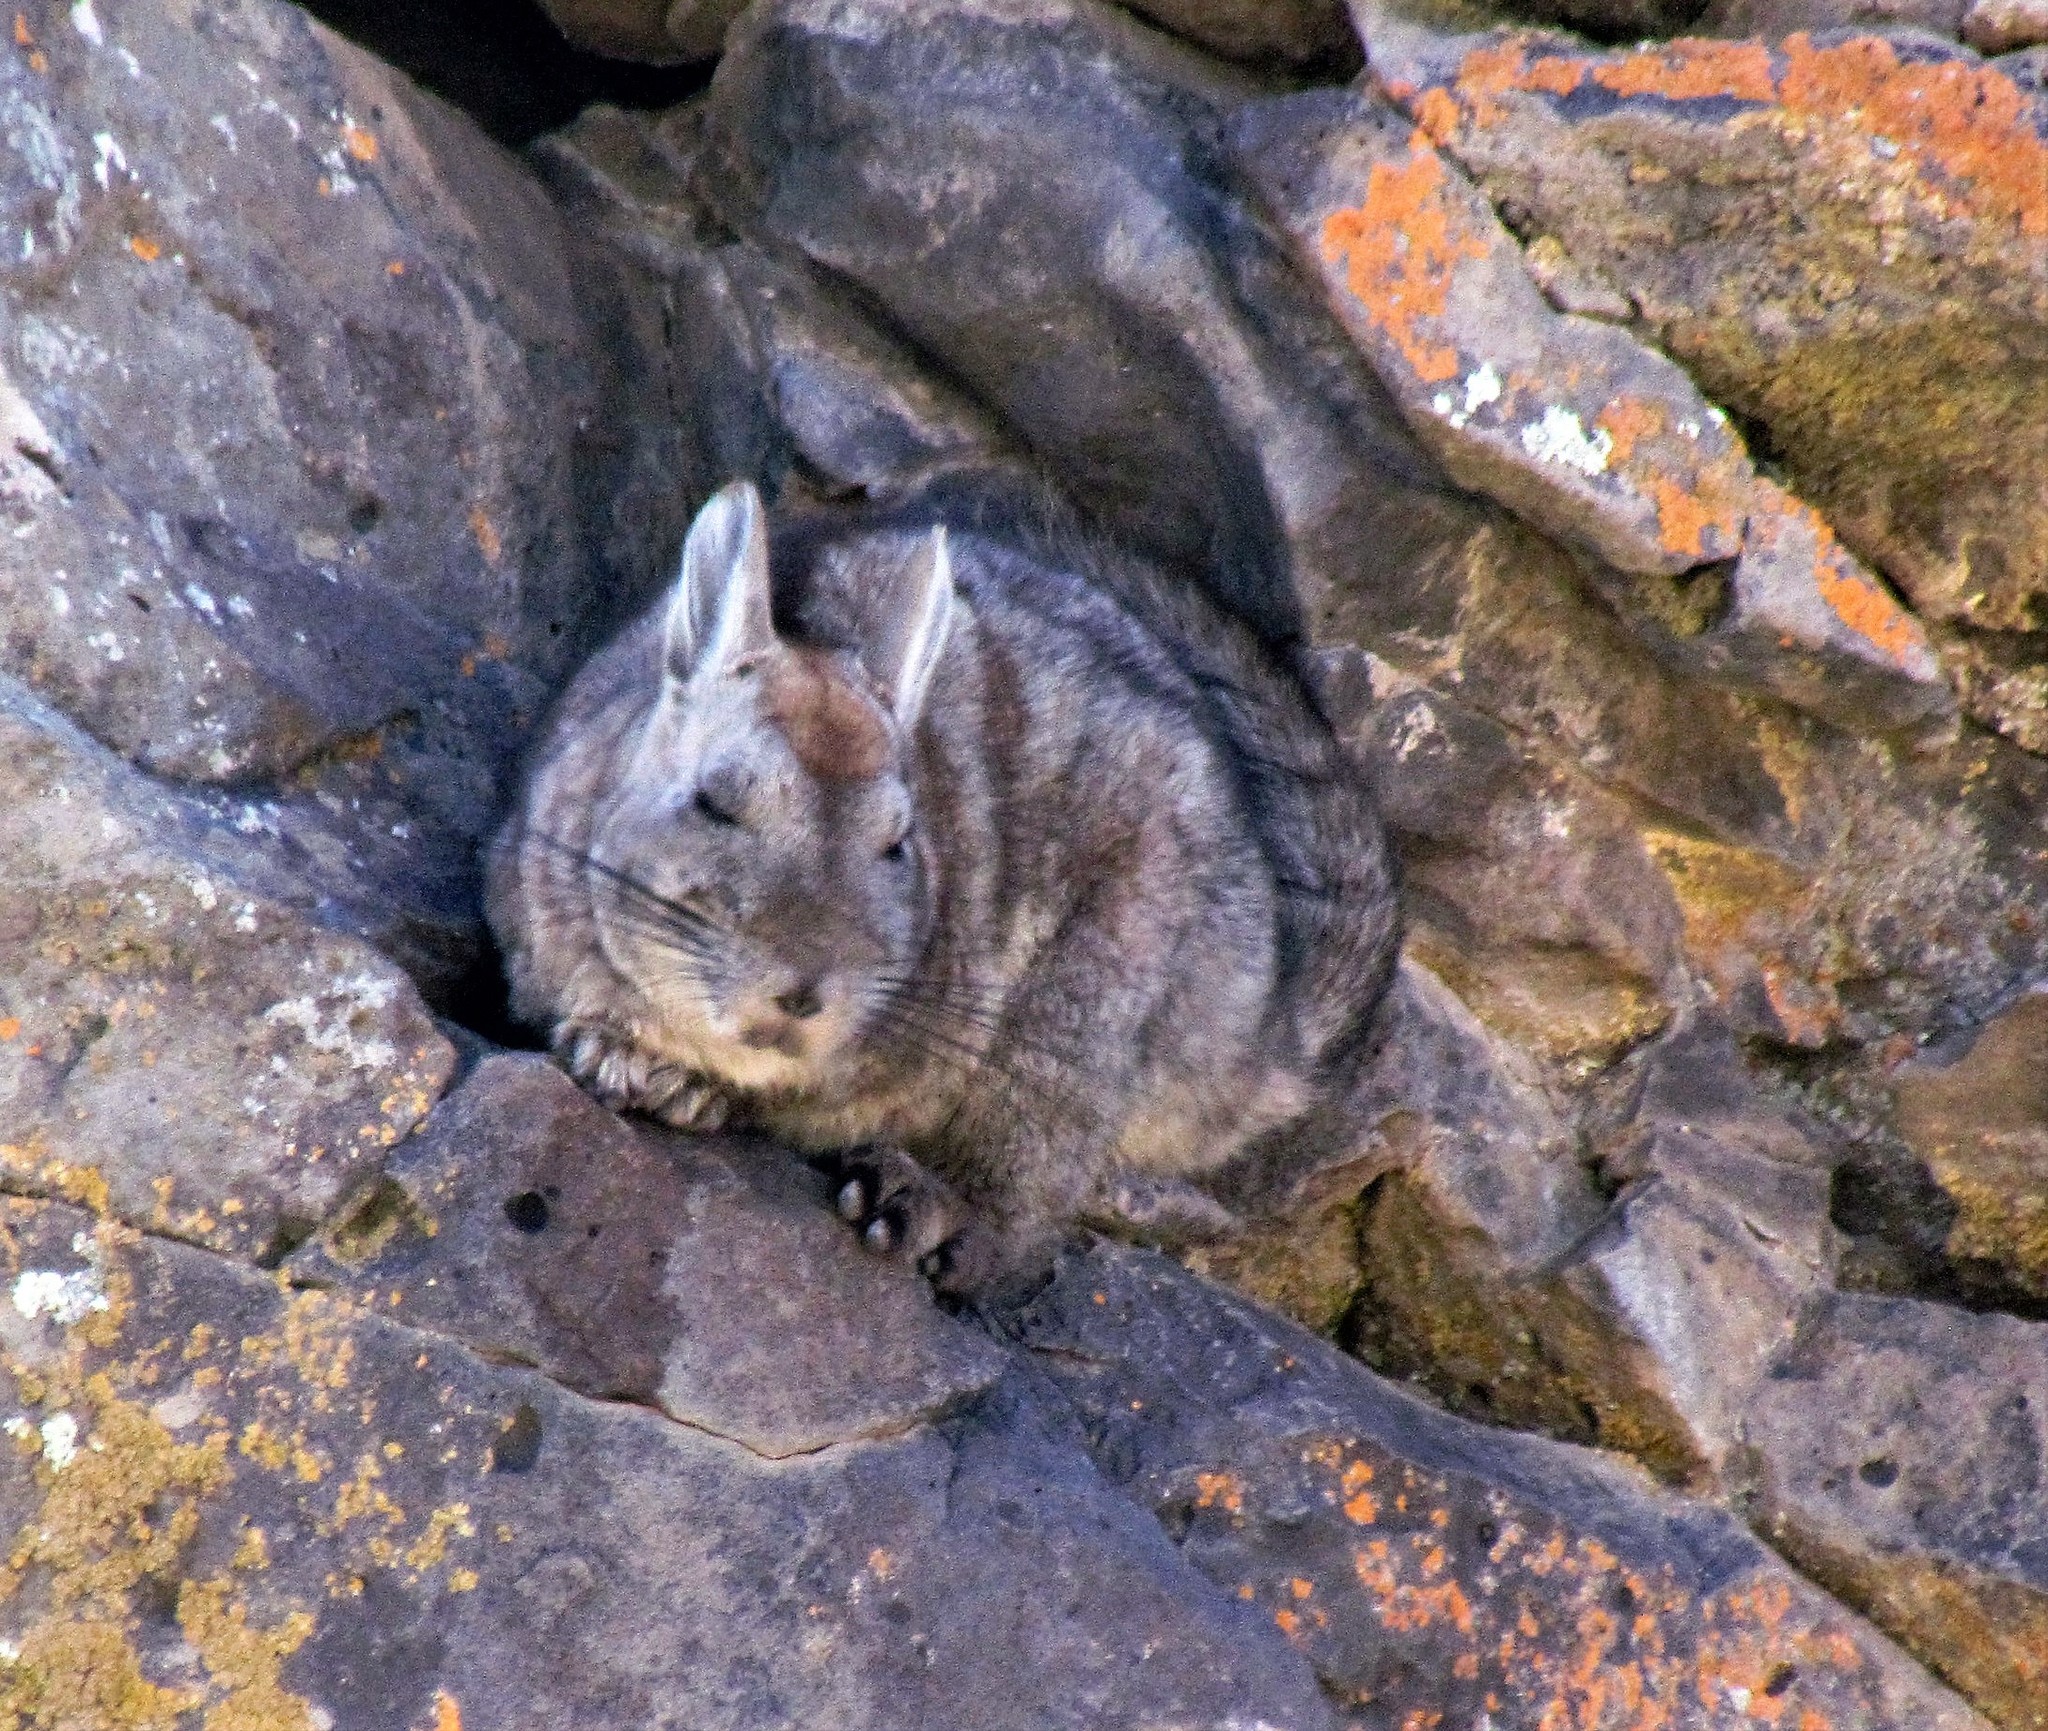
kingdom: Animalia
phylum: Chordata
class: Mammalia
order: Rodentia
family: Chinchillidae
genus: Lagidium
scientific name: Lagidium viscacia
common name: Southern viscacha
